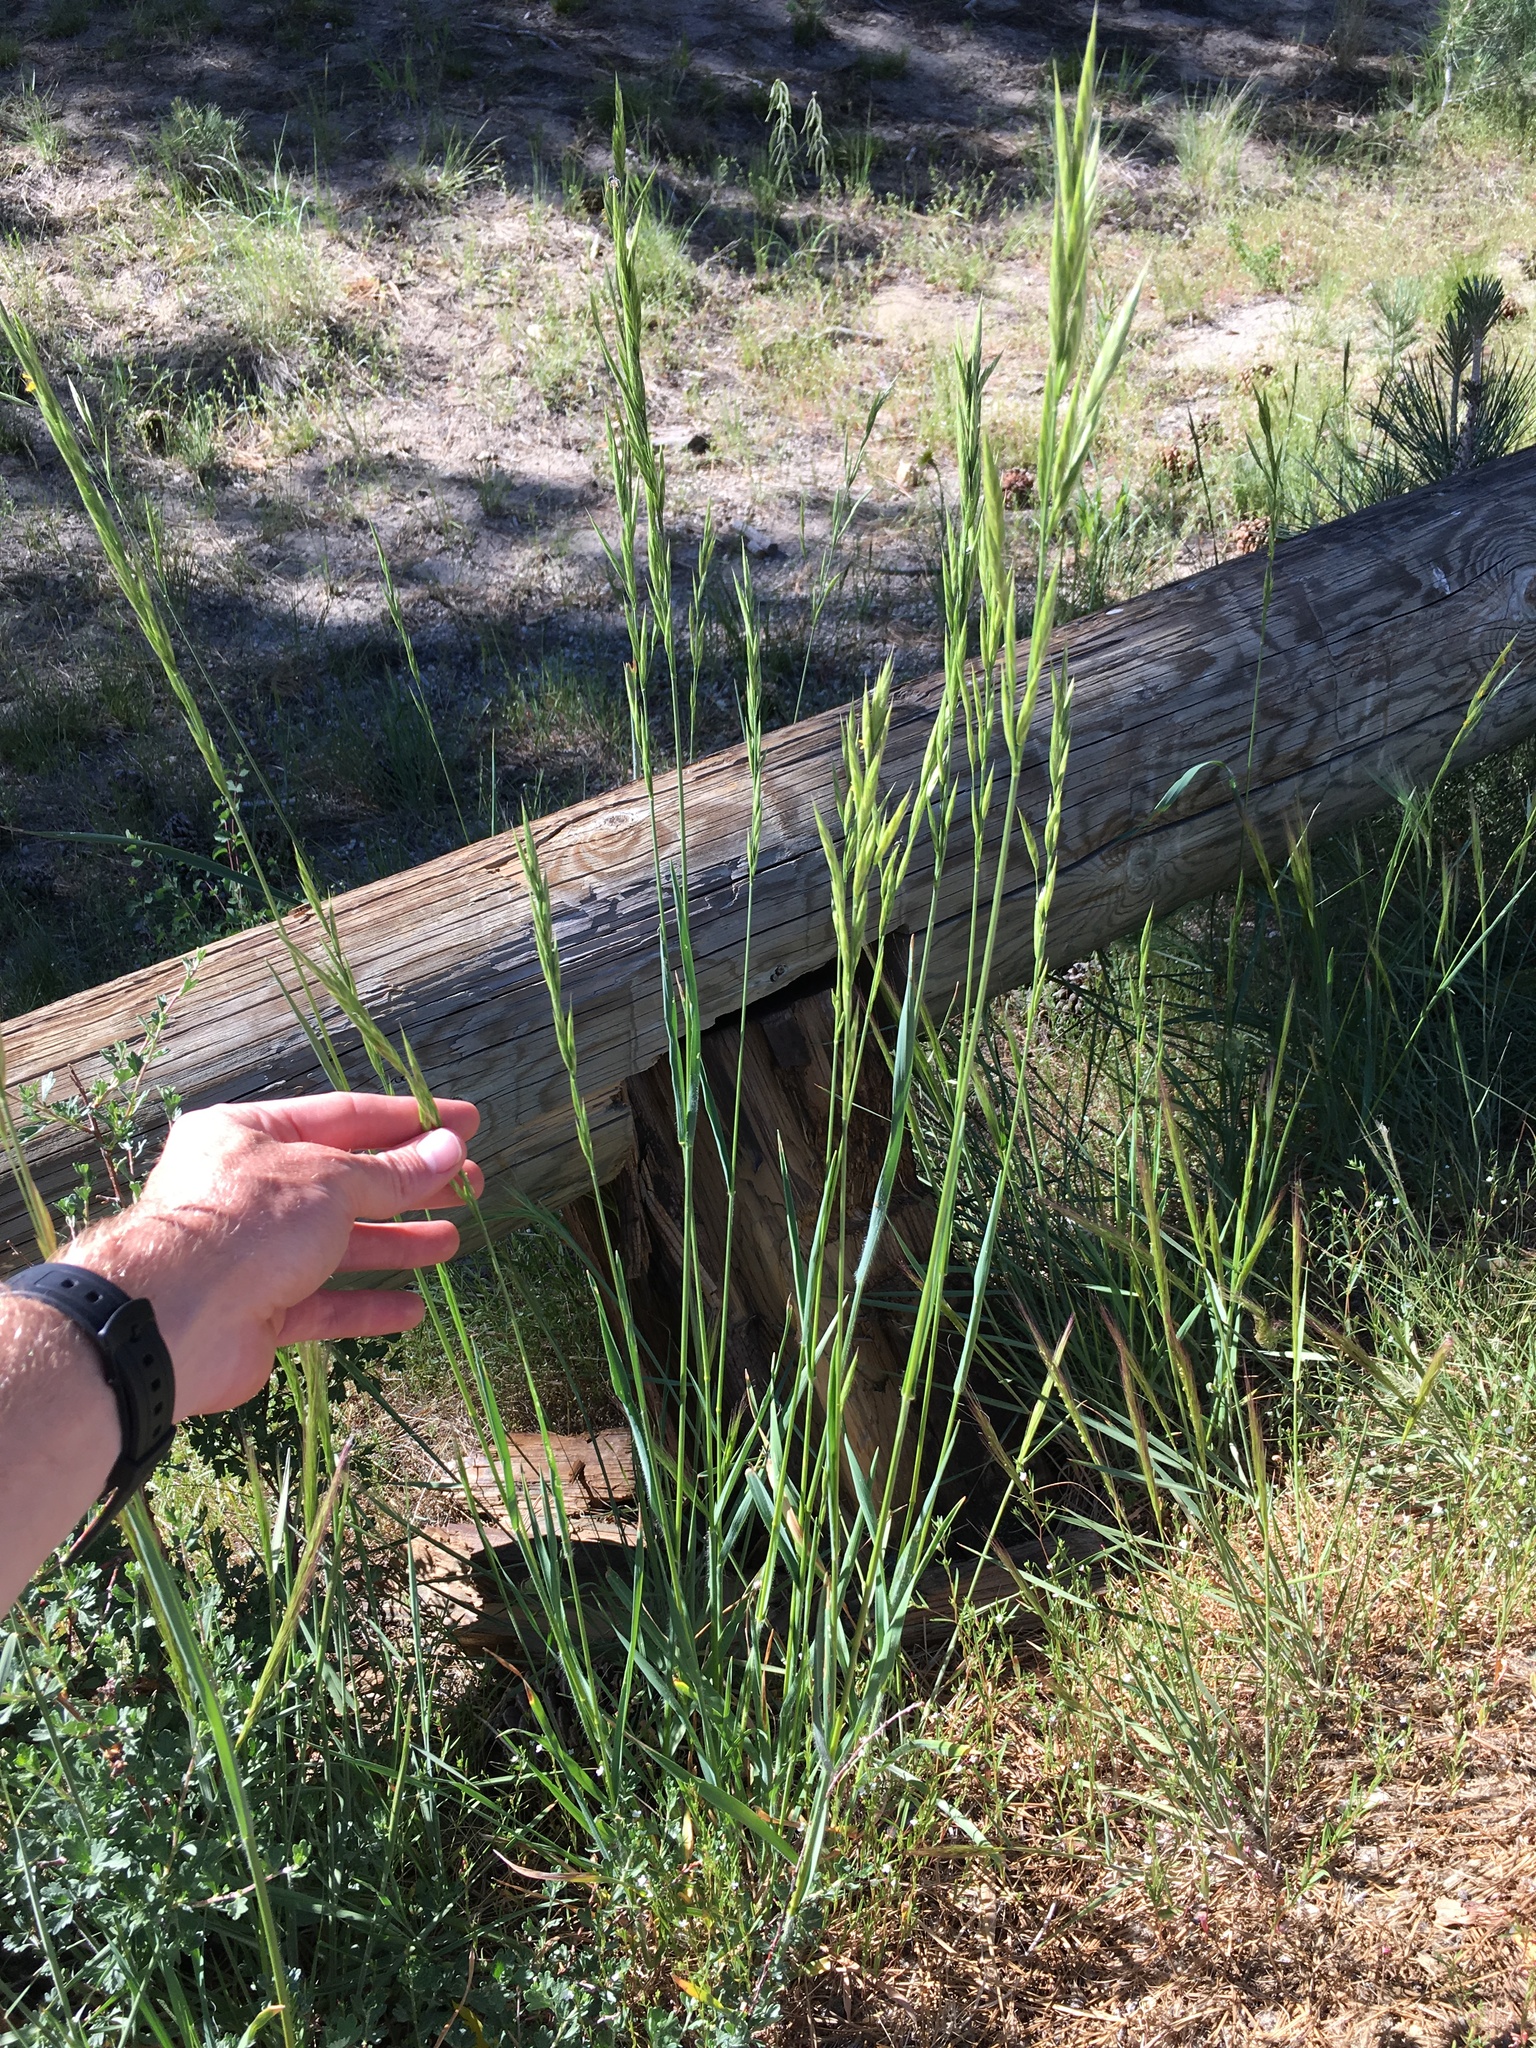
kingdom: Plantae
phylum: Tracheophyta
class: Liliopsida
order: Poales
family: Poaceae
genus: Bromus
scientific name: Bromus carinatus
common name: Mountain brome
